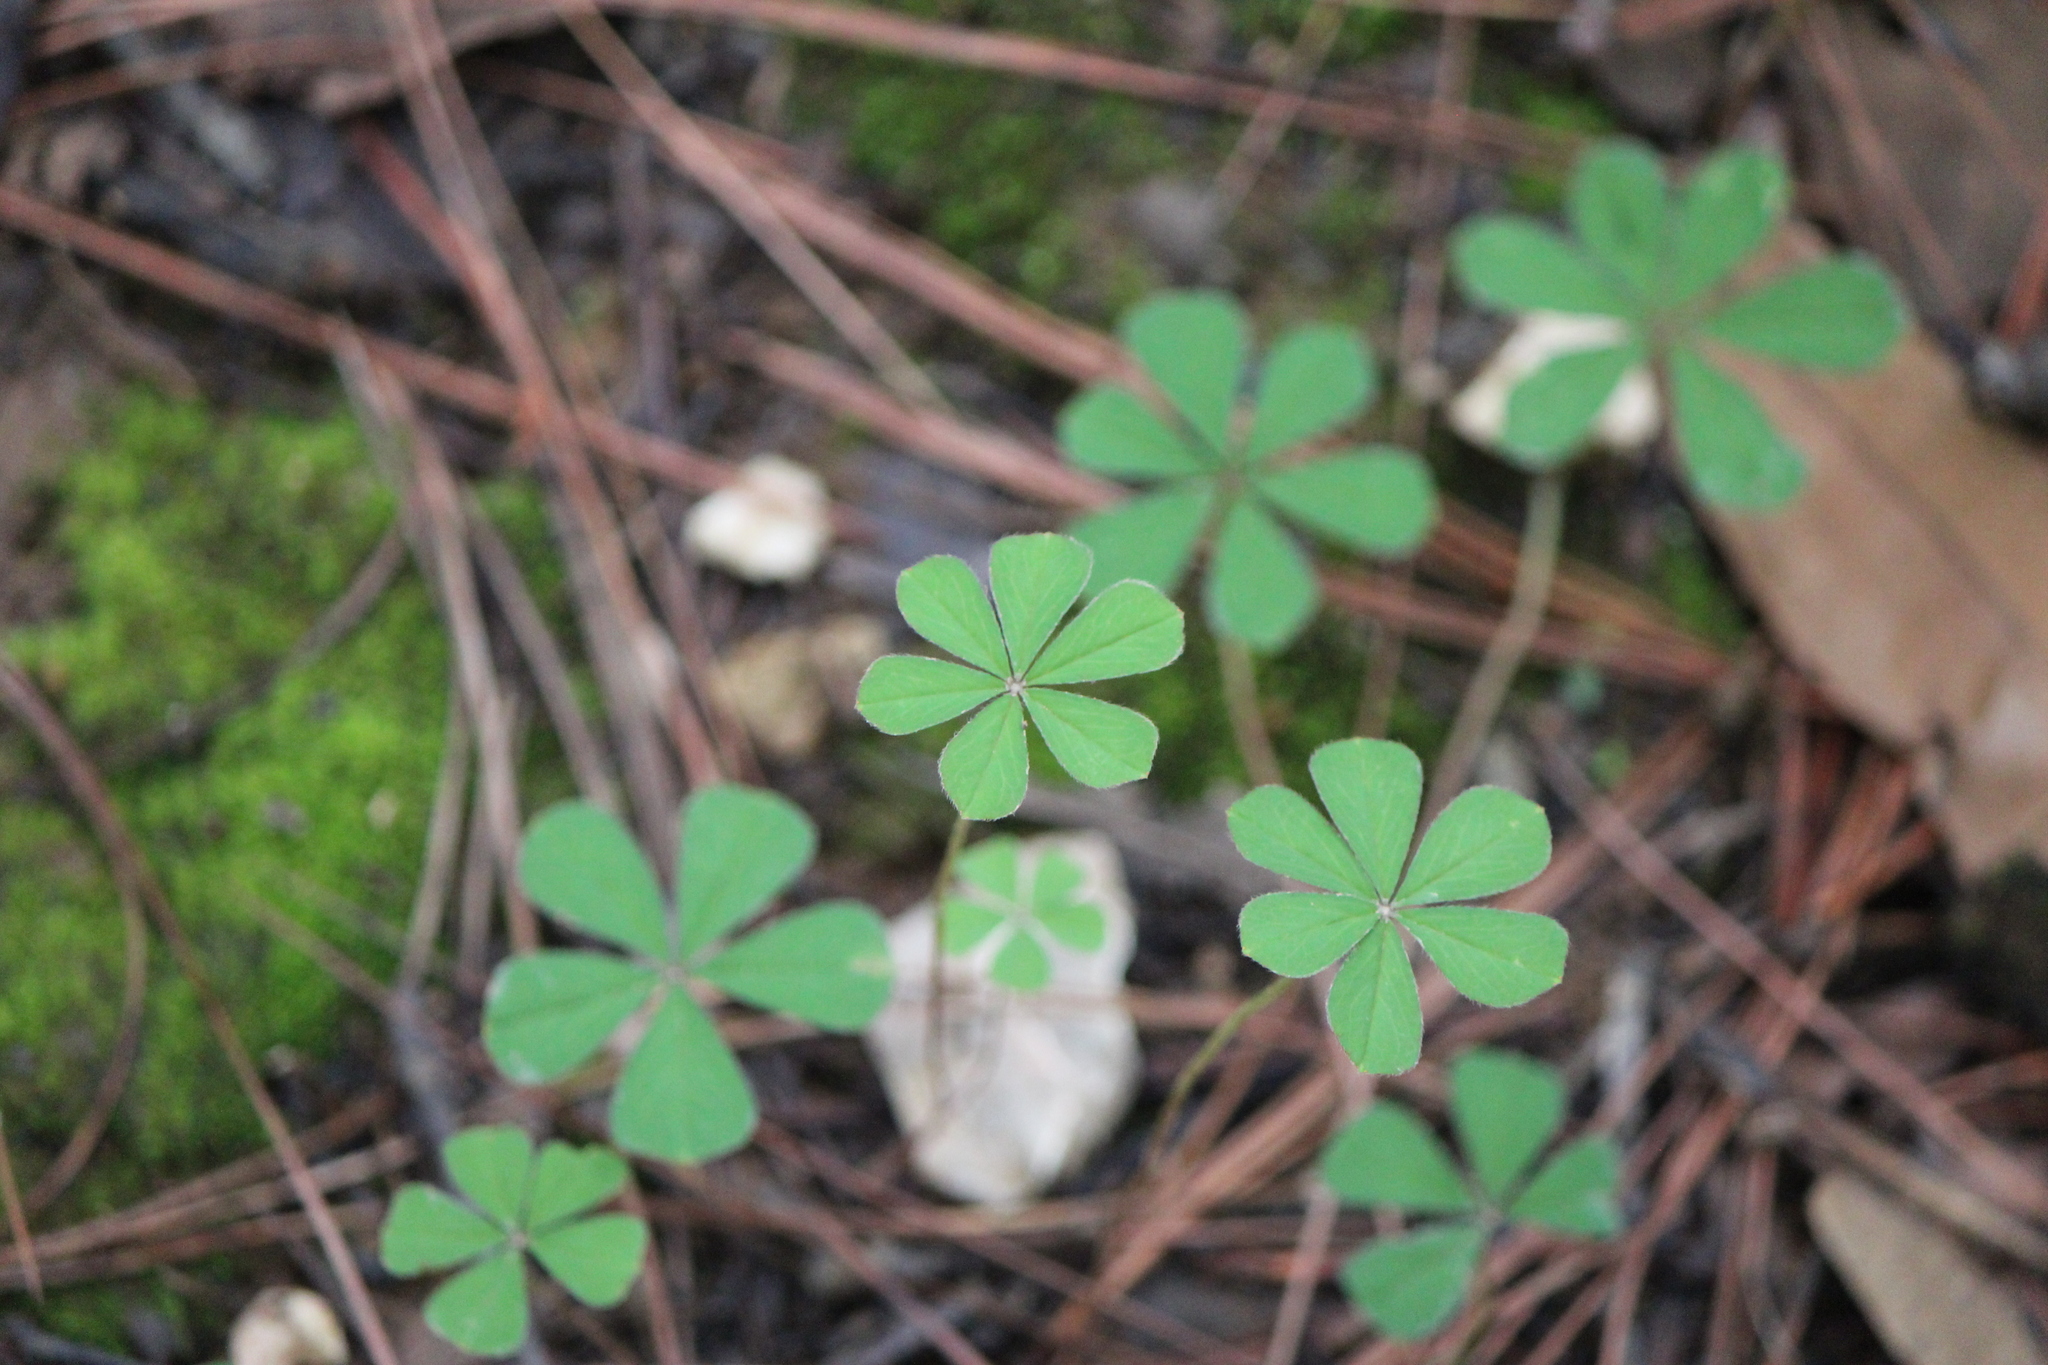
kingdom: Plantae
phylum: Tracheophyta
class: Magnoliopsida
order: Oxalidales
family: Oxalidaceae
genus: Oxalis
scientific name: Oxalis hernandesii
